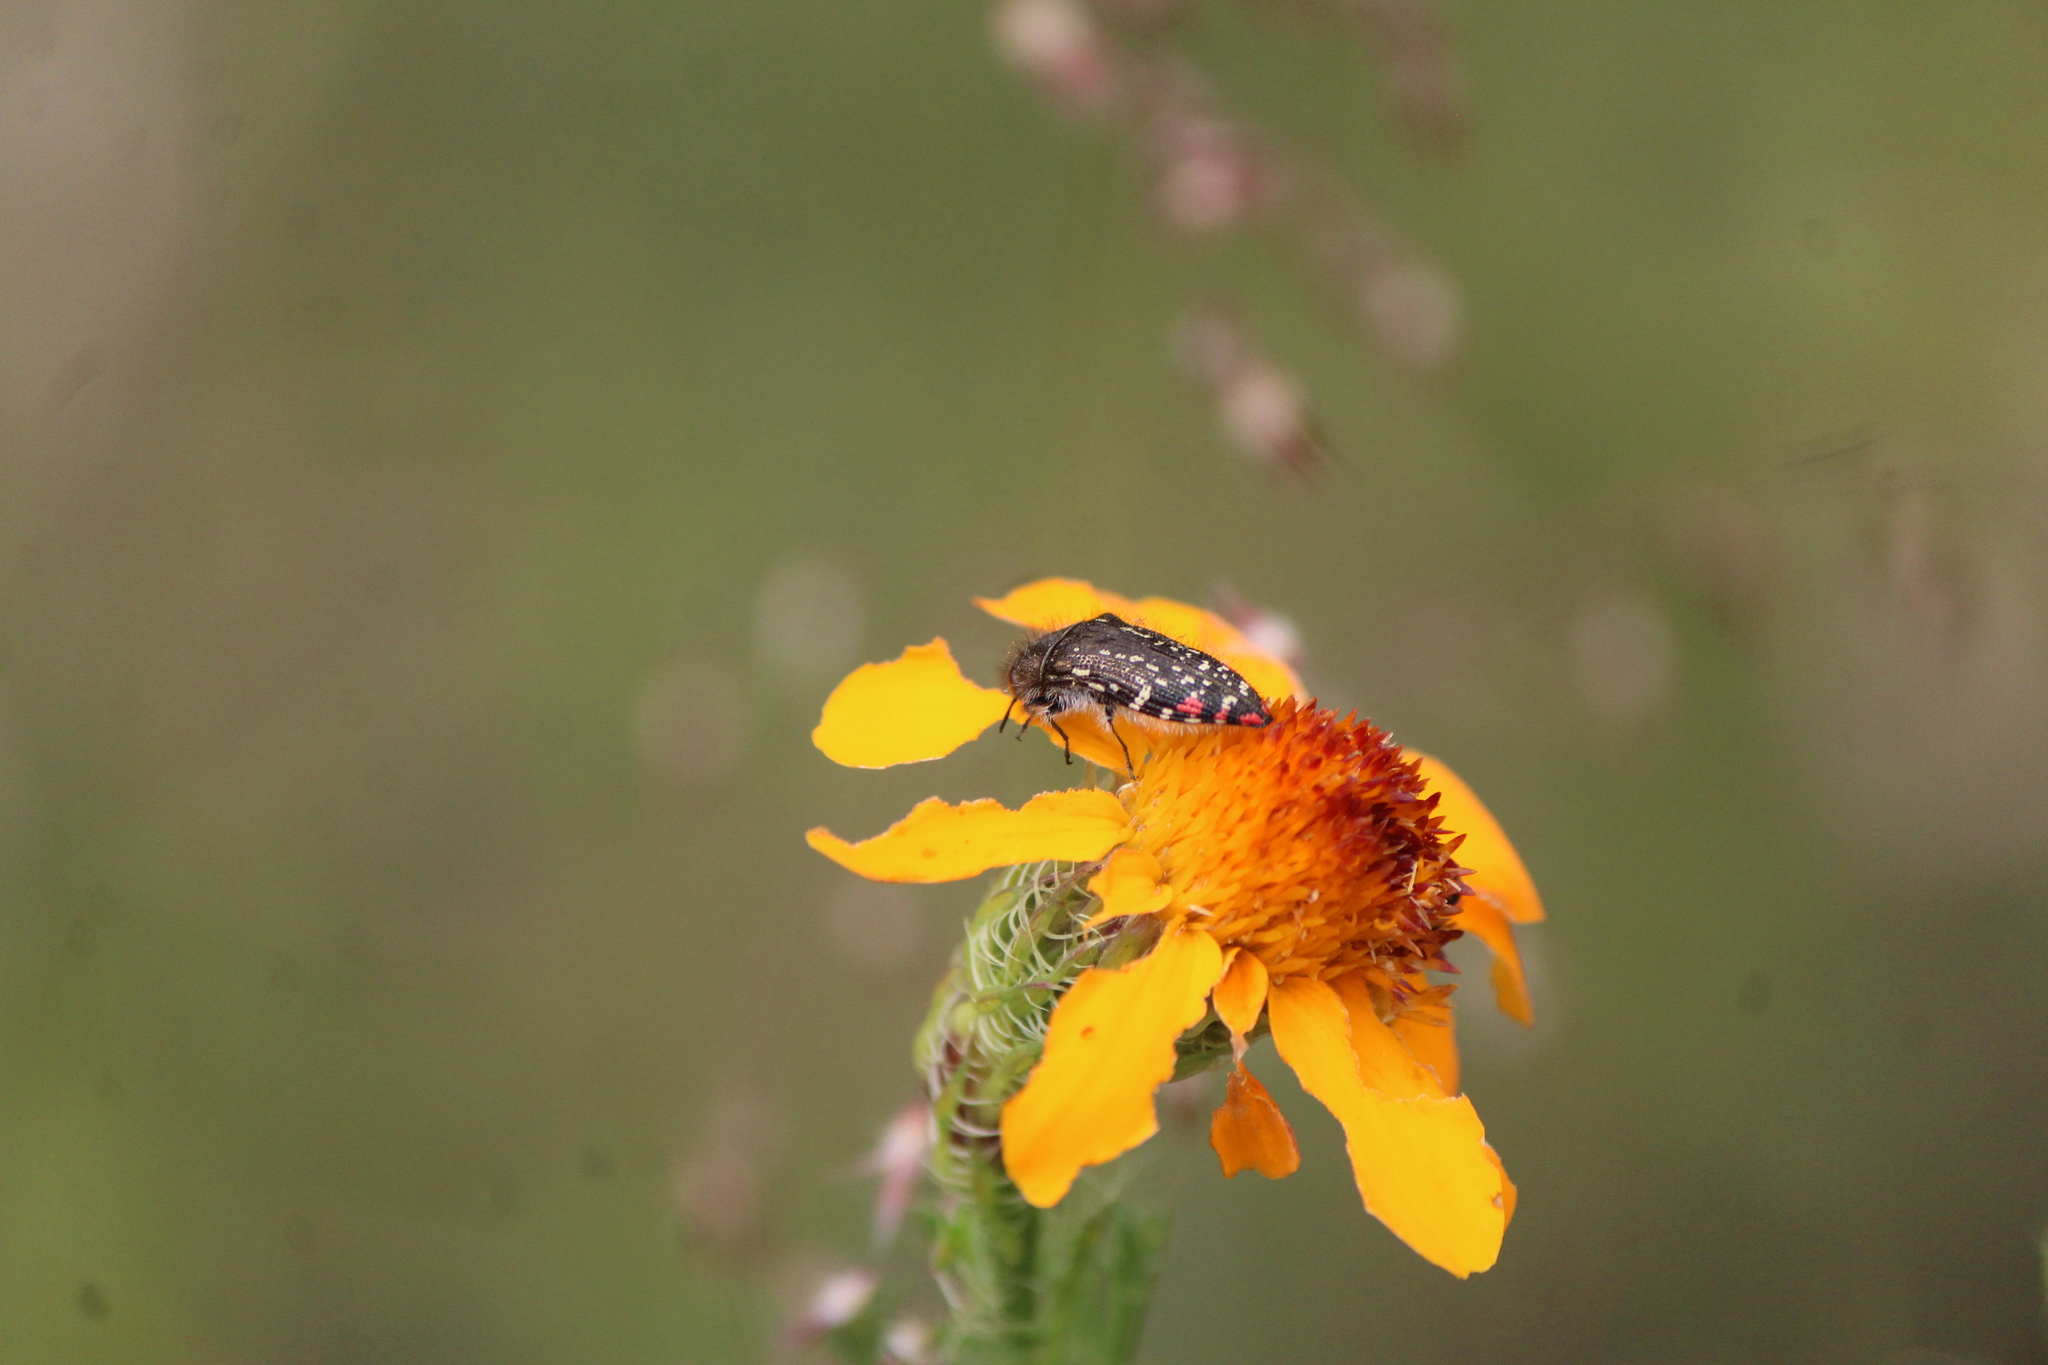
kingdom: Animalia
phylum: Arthropoda
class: Insecta
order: Coleoptera
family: Buprestidae
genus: Acmaeodera
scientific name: Acmaeodera rubronotata
